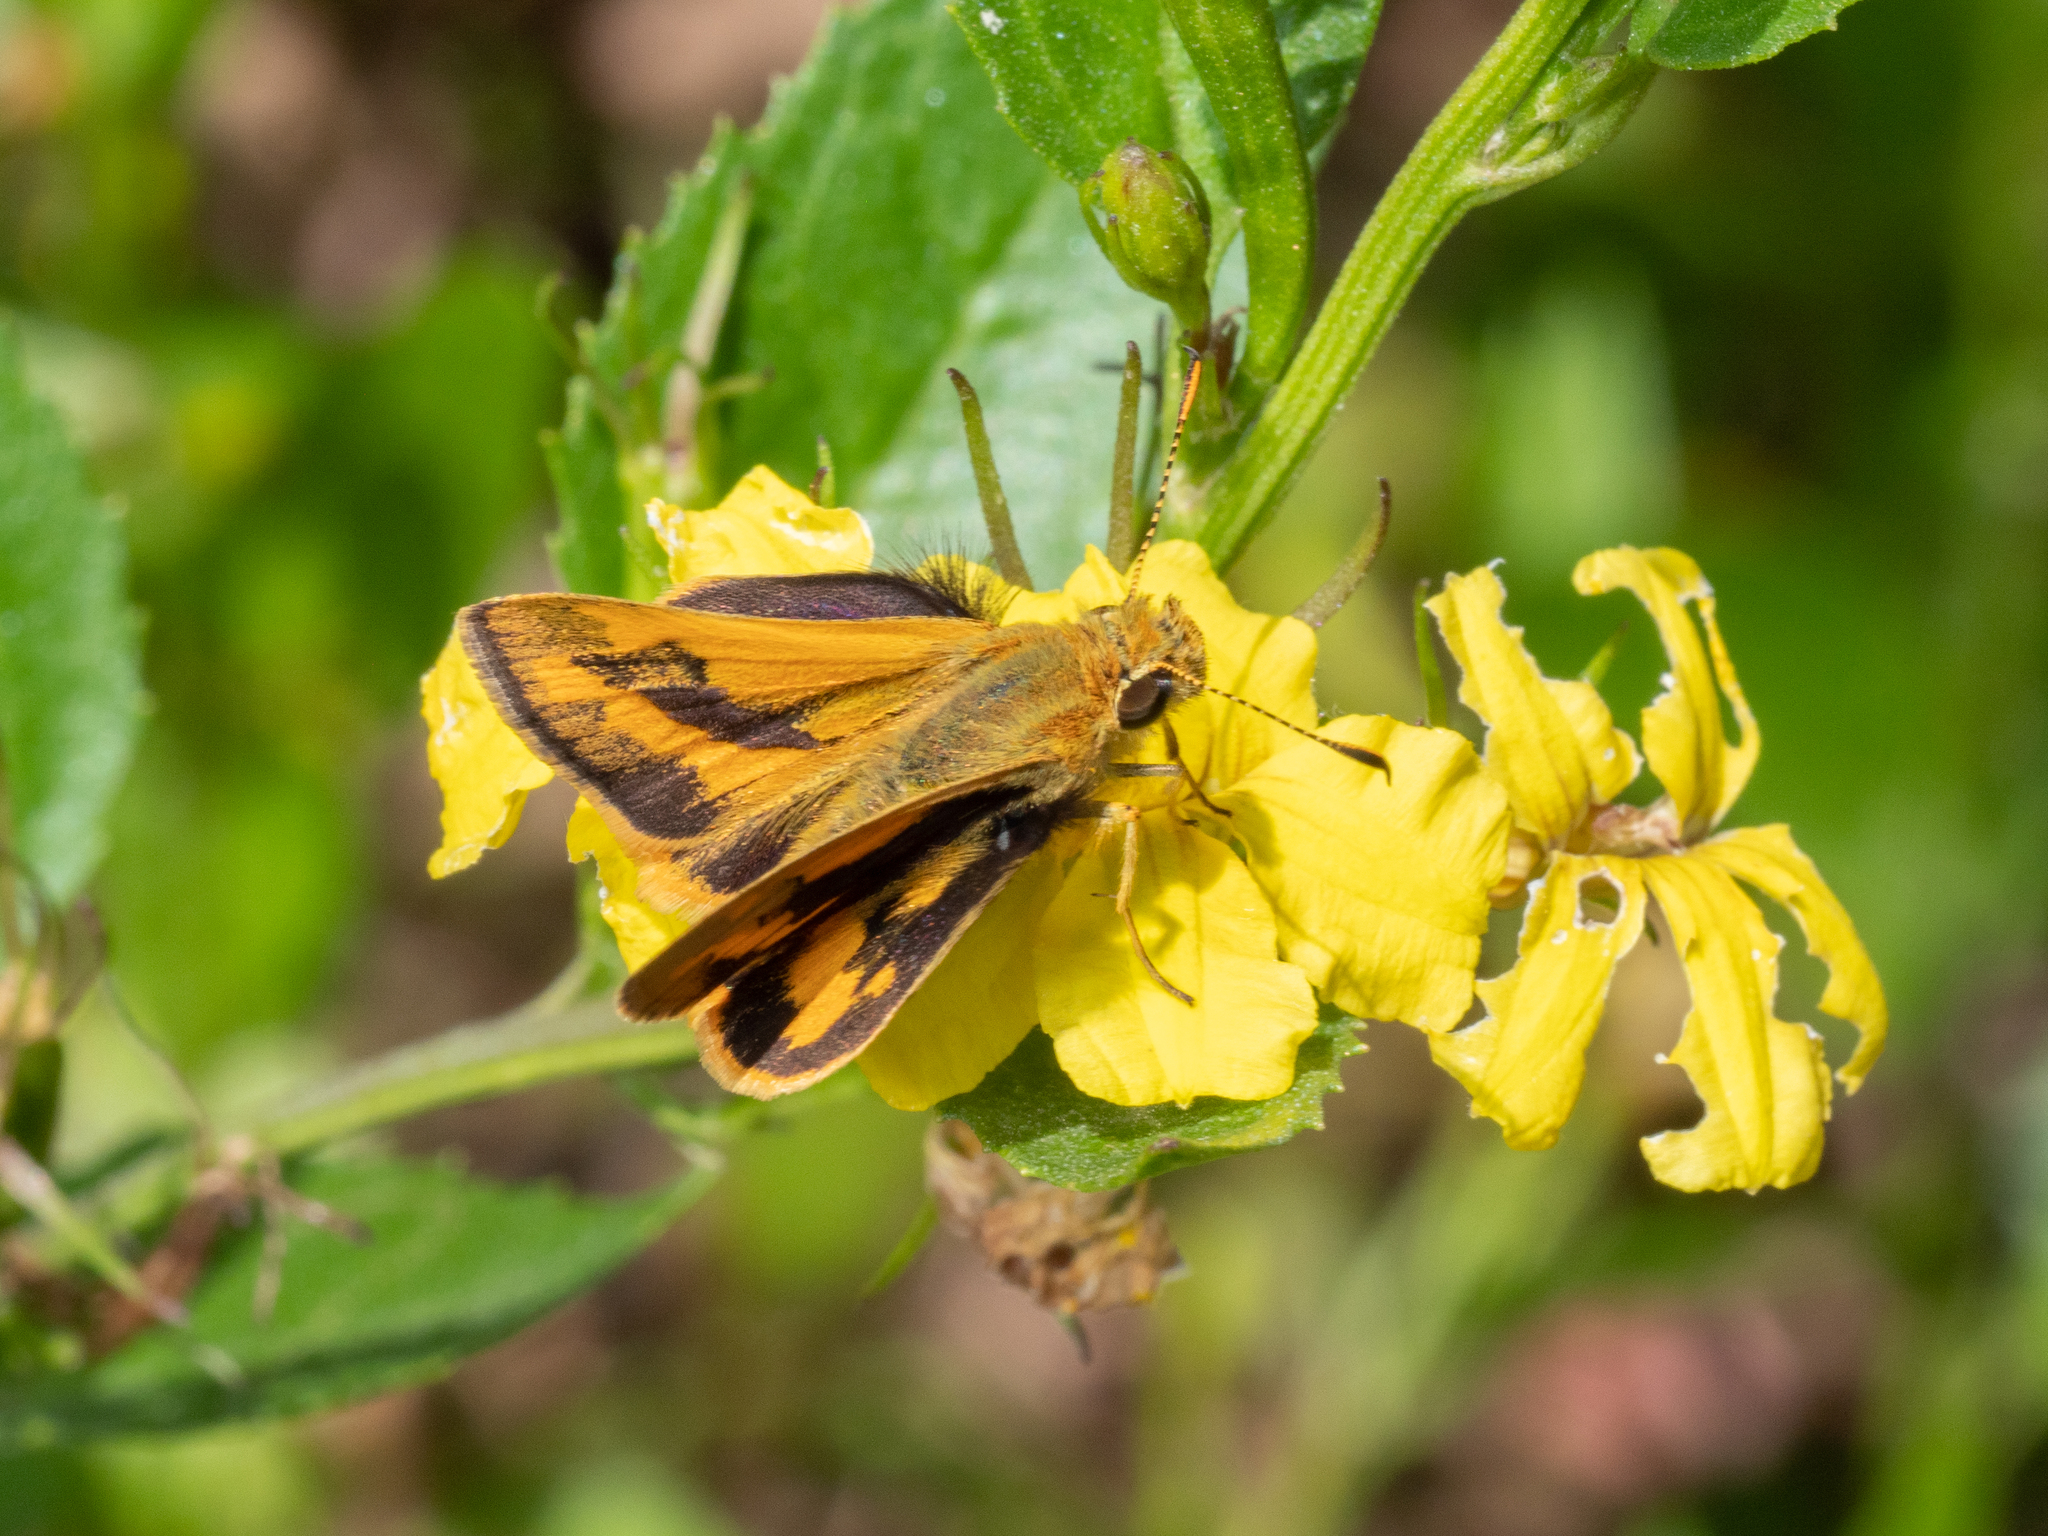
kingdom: Animalia
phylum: Arthropoda
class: Insecta
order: Lepidoptera
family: Hesperiidae
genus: Ocybadistes
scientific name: Ocybadistes walkeri
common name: Yellow-banded dart
